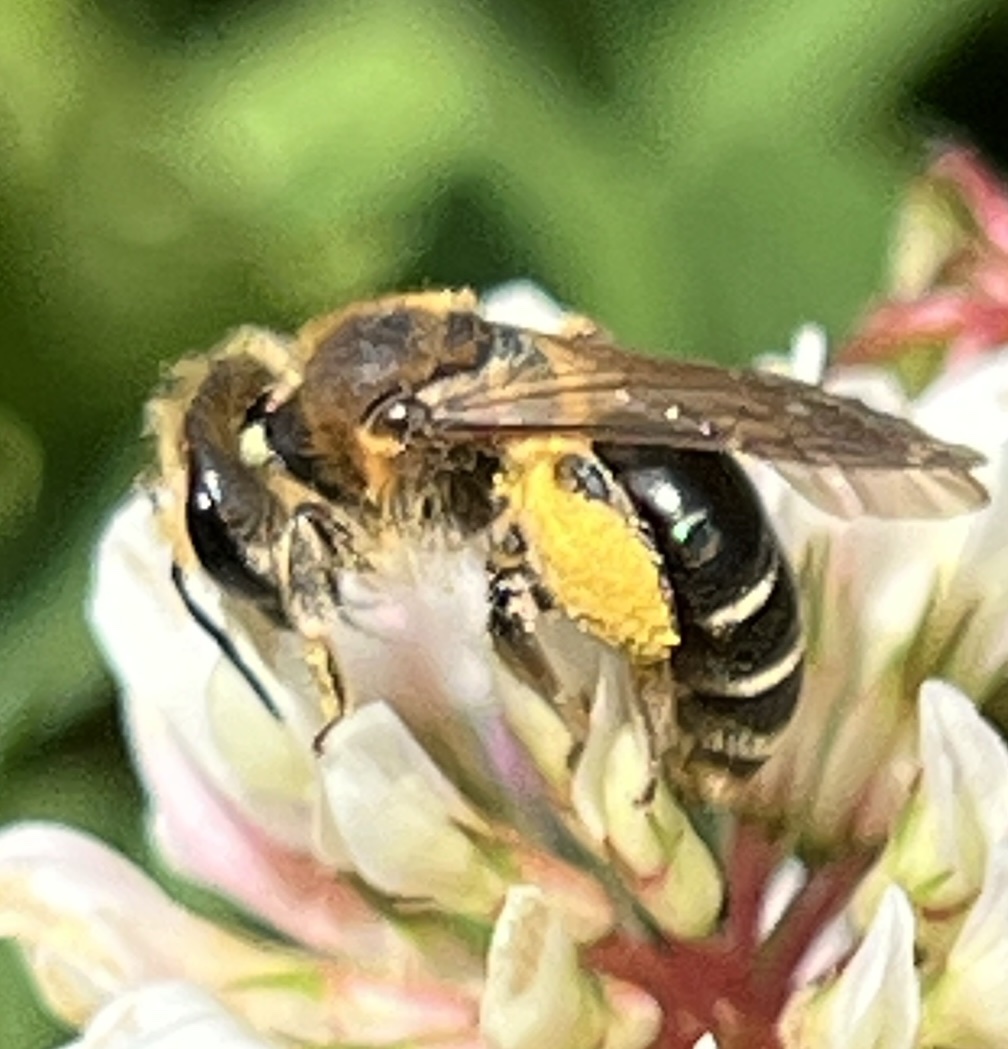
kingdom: Animalia
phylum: Arthropoda
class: Insecta
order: Hymenoptera
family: Andrenidae
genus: Andrena
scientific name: Andrena wilkella
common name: Wilke's mining bee
